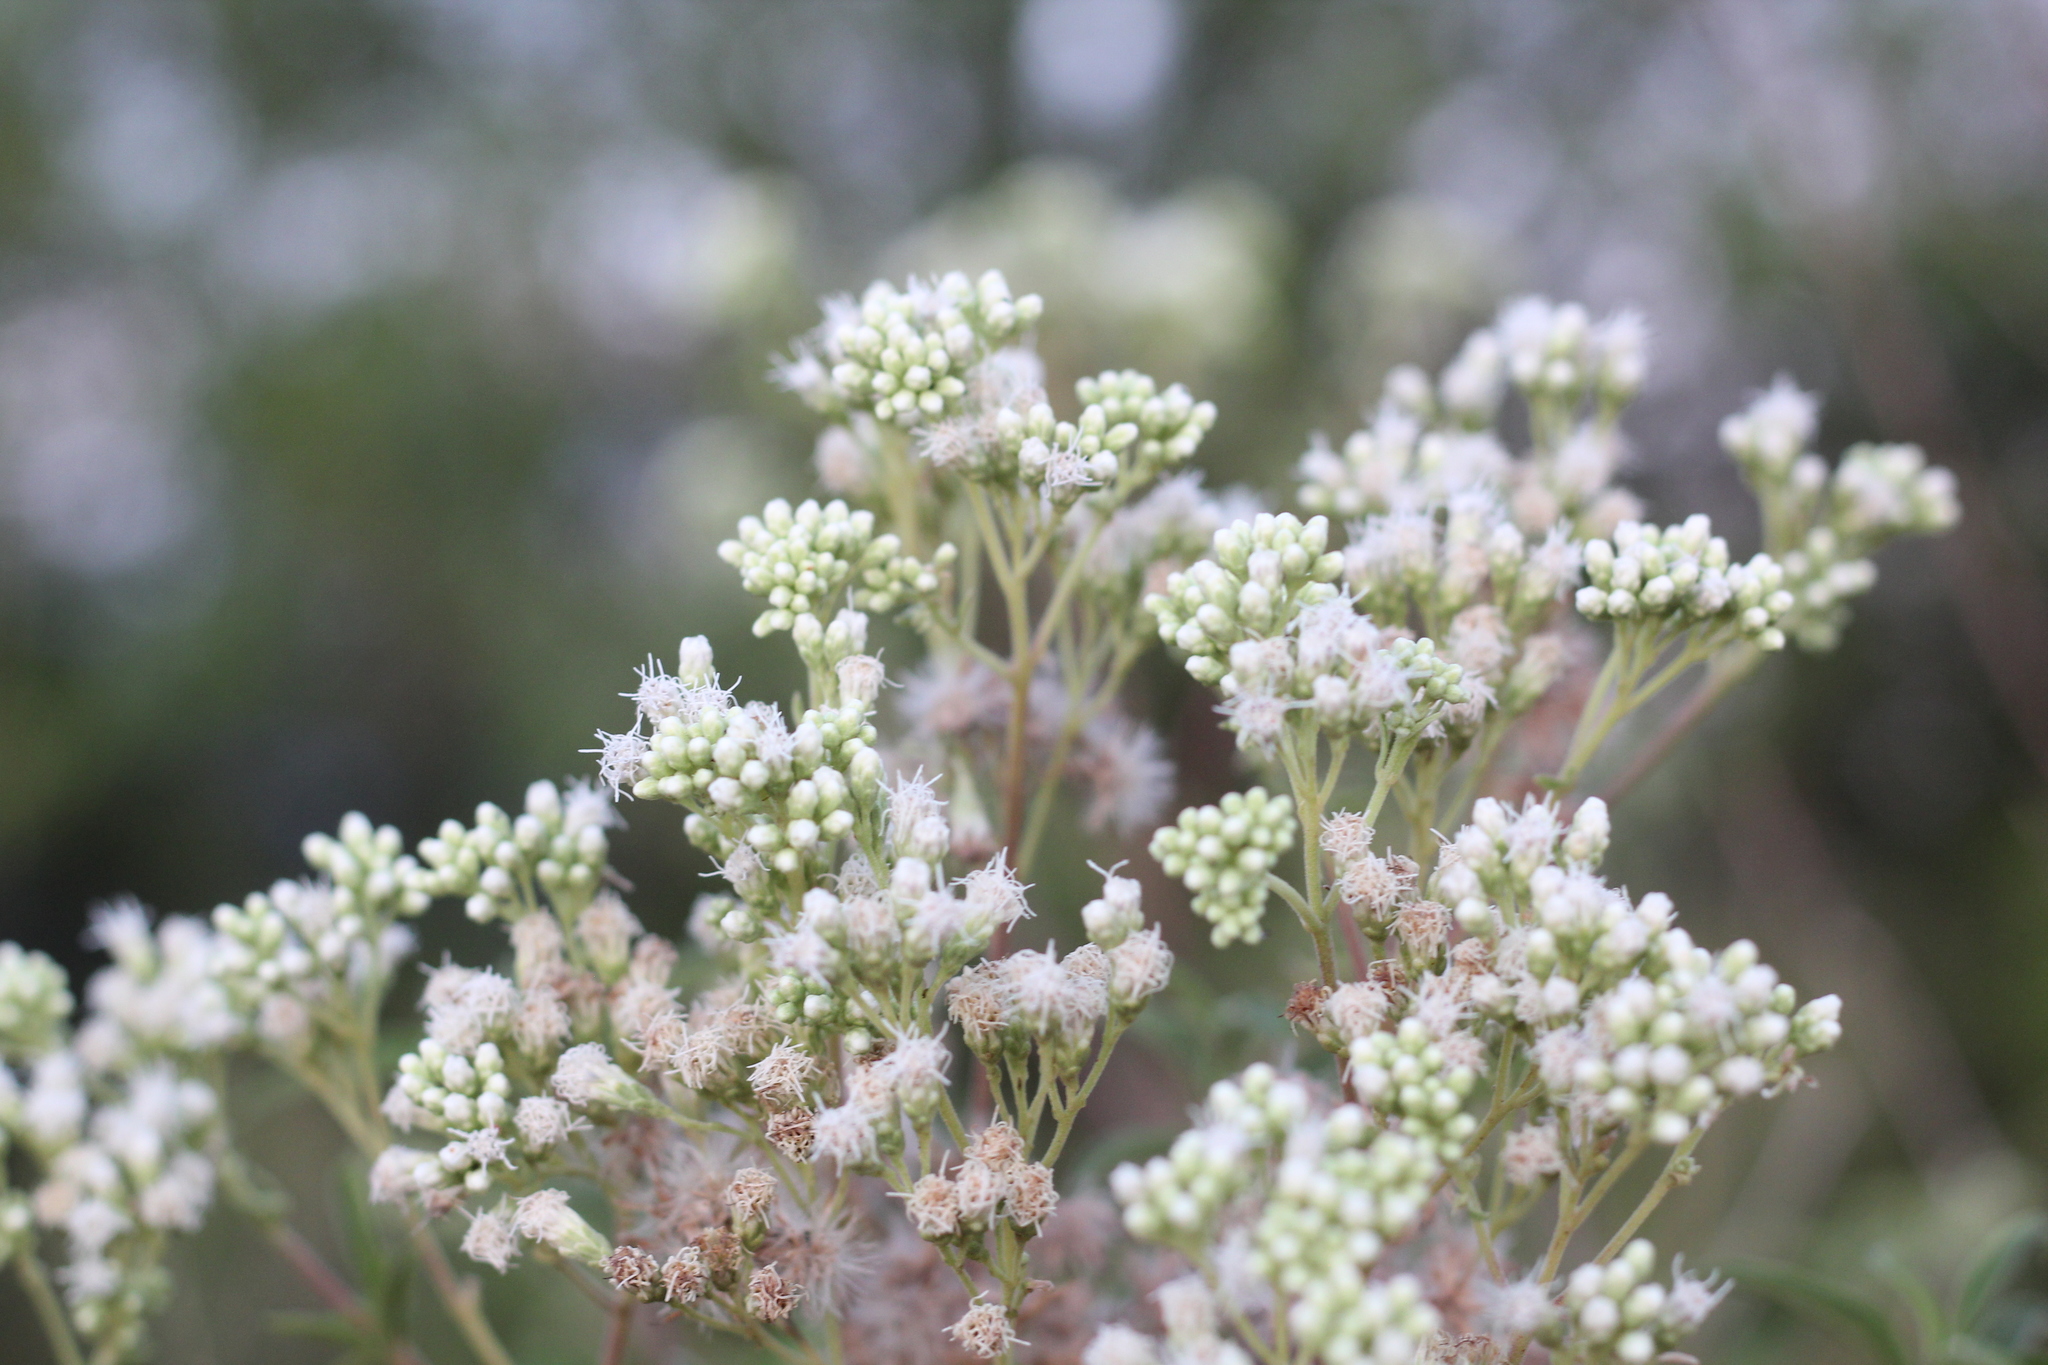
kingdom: Plantae
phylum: Tracheophyta
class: Magnoliopsida
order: Asterales
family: Asteraceae
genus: Austroeupatorium
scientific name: Austroeupatorium inulifolium
